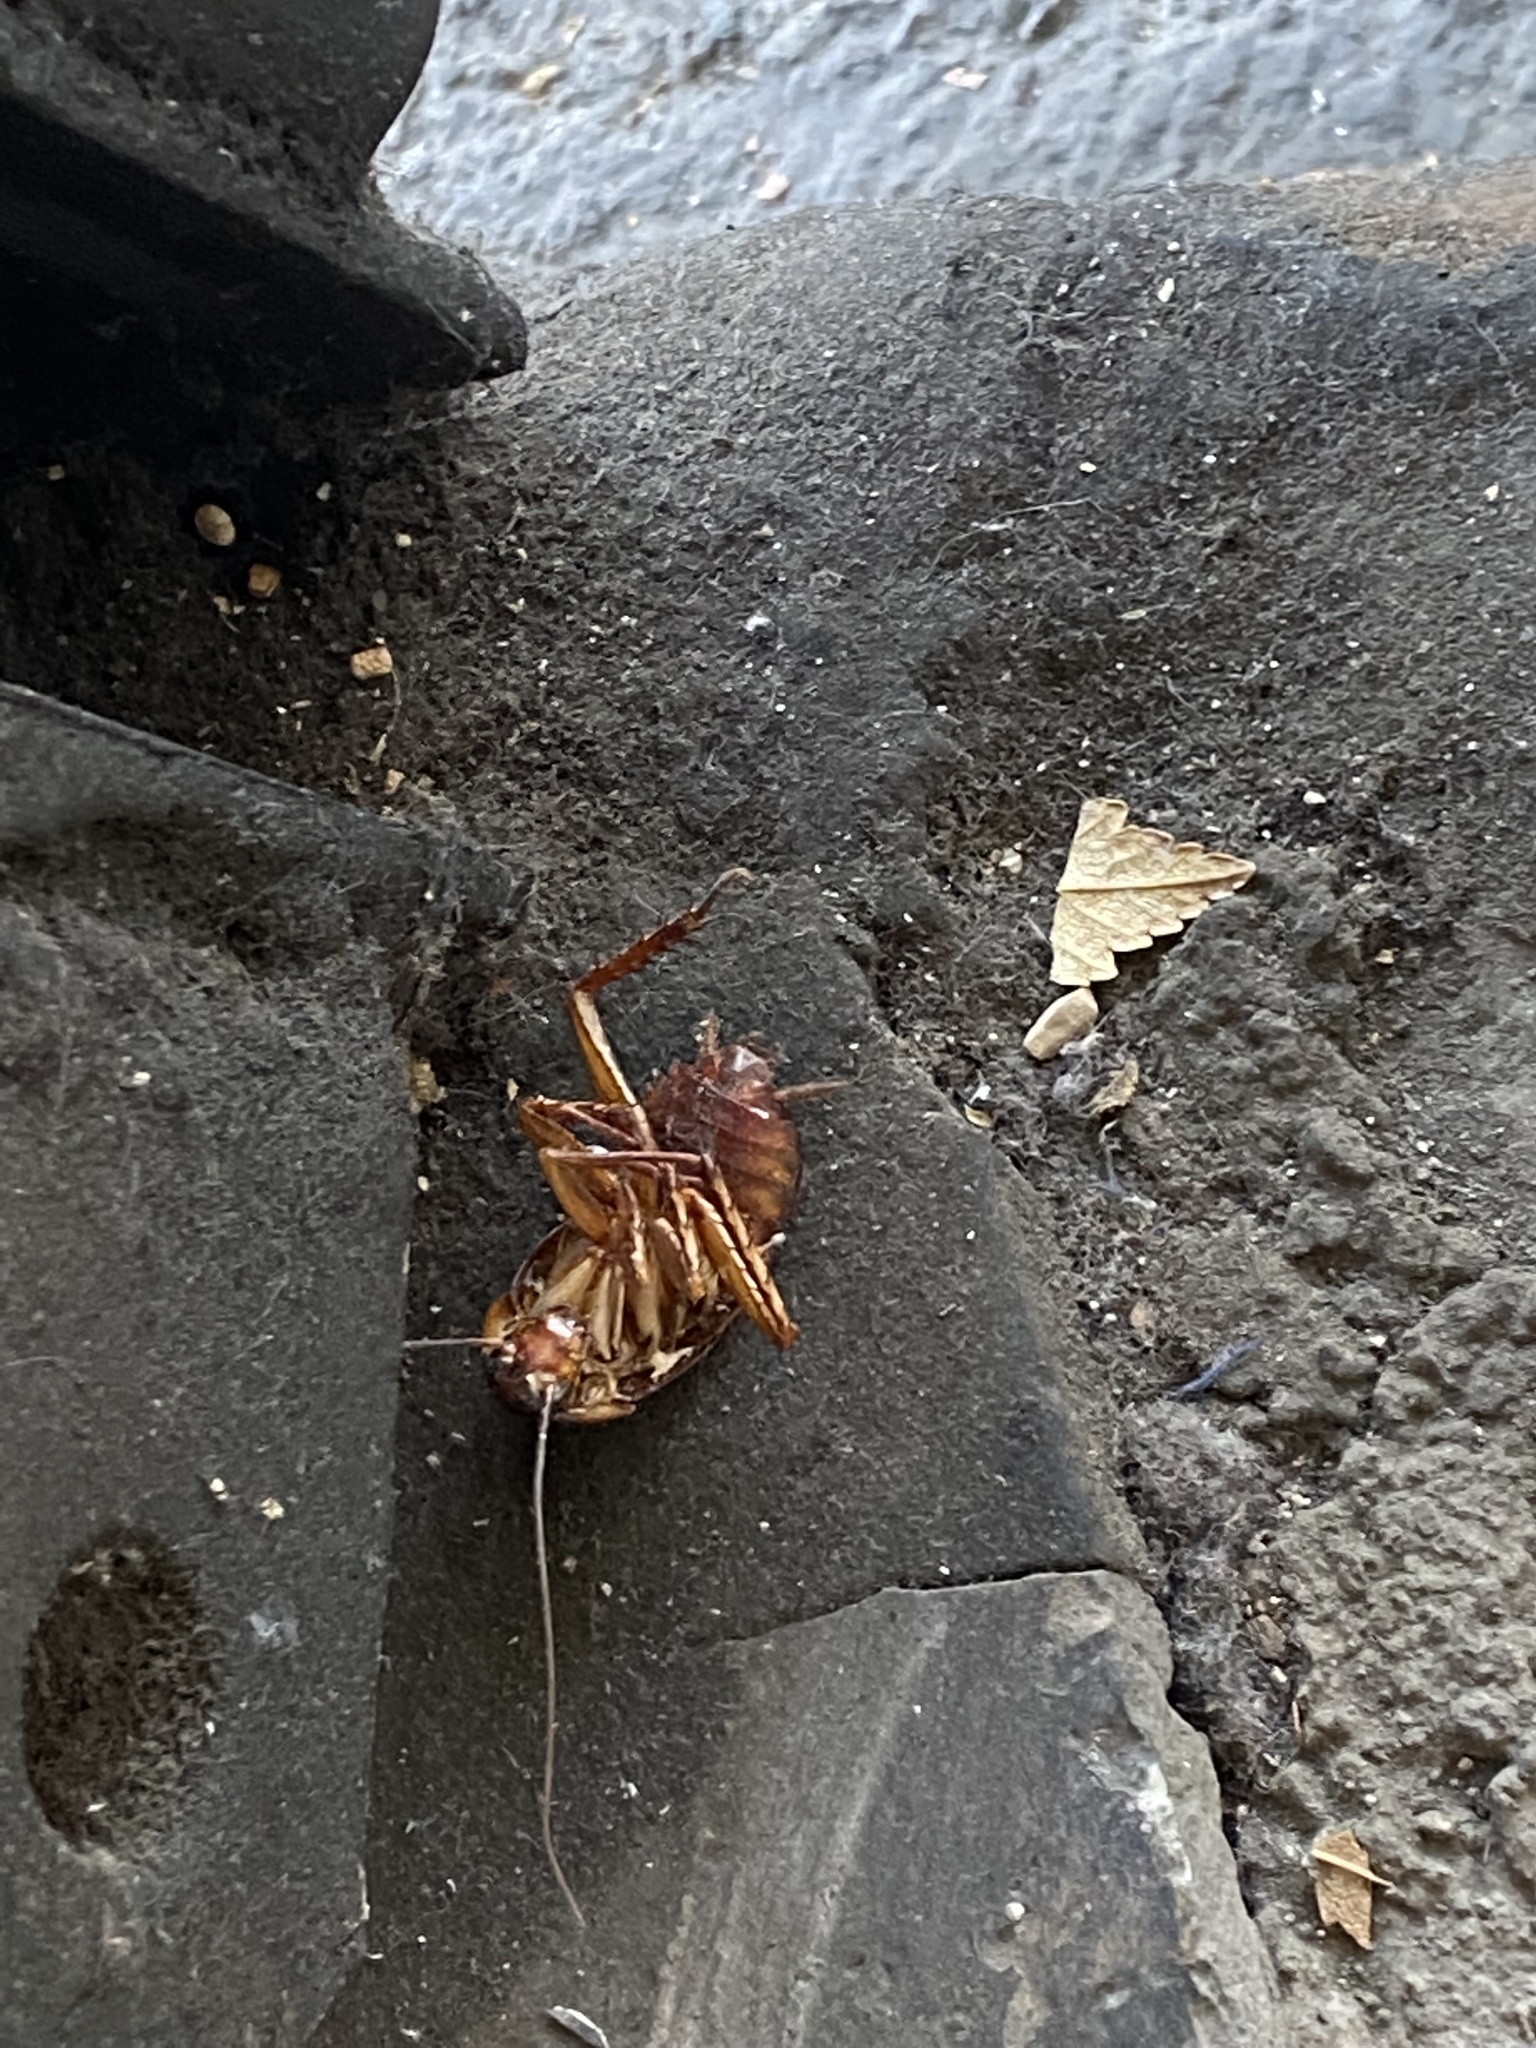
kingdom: Animalia
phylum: Arthropoda
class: Insecta
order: Blattodea
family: Blattidae
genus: Periplaneta
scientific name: Periplaneta americana
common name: American cockroach
